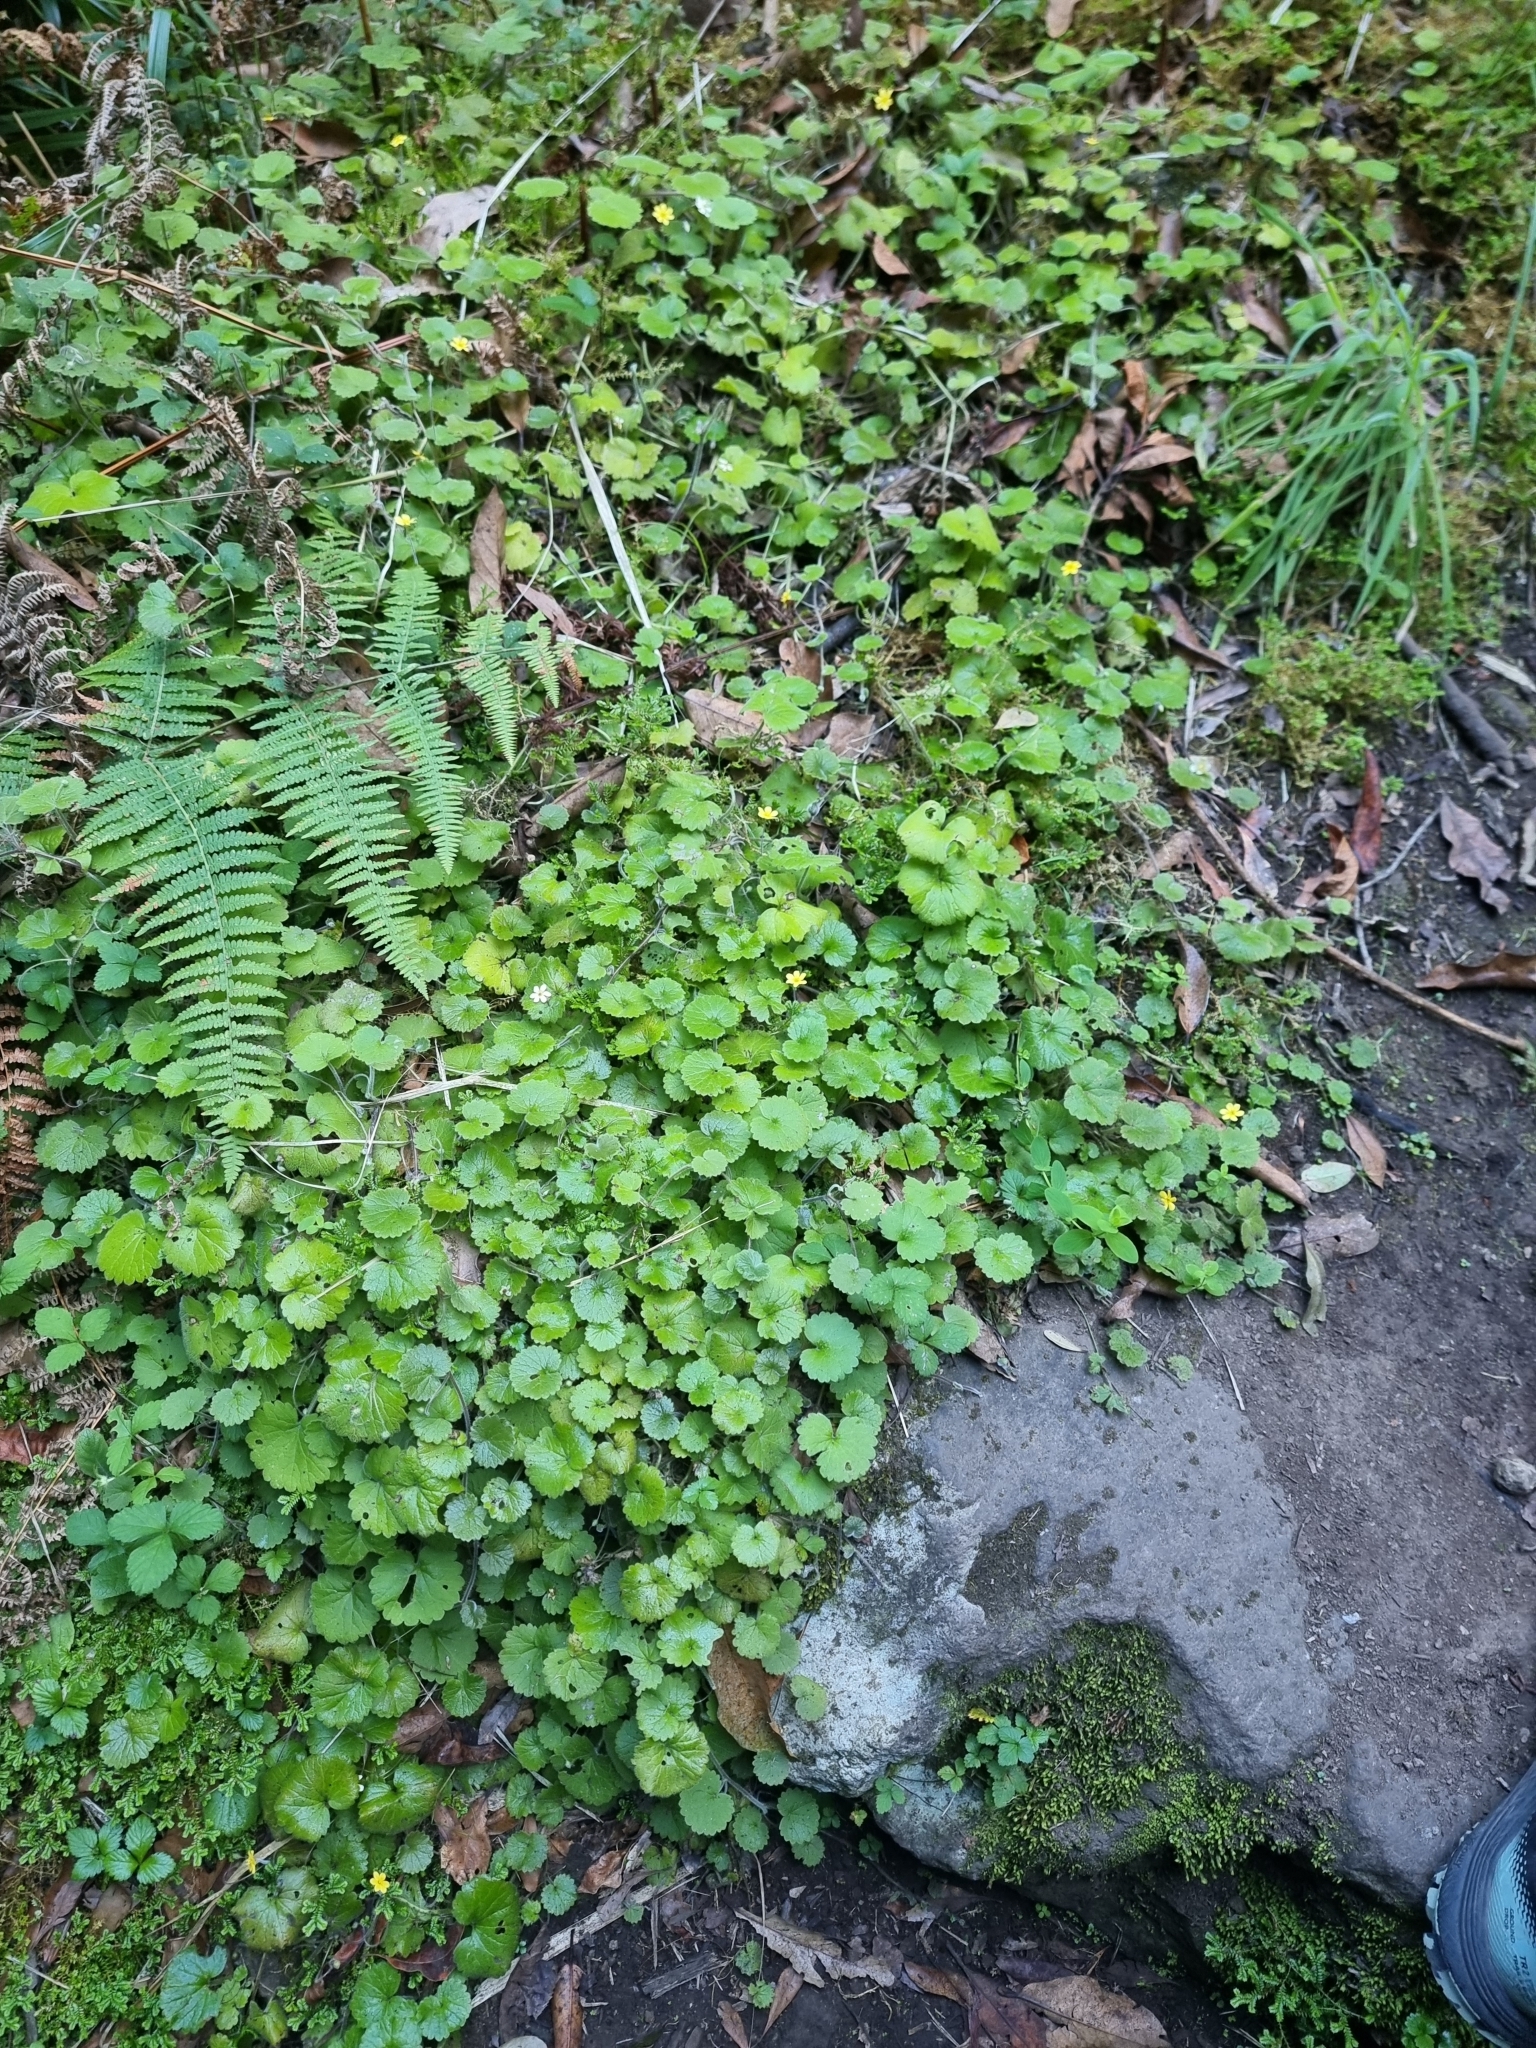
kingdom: Plantae
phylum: Tracheophyta
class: Magnoliopsida
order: Lamiales
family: Plantaginaceae
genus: Sibthorpia
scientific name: Sibthorpia peregrina
